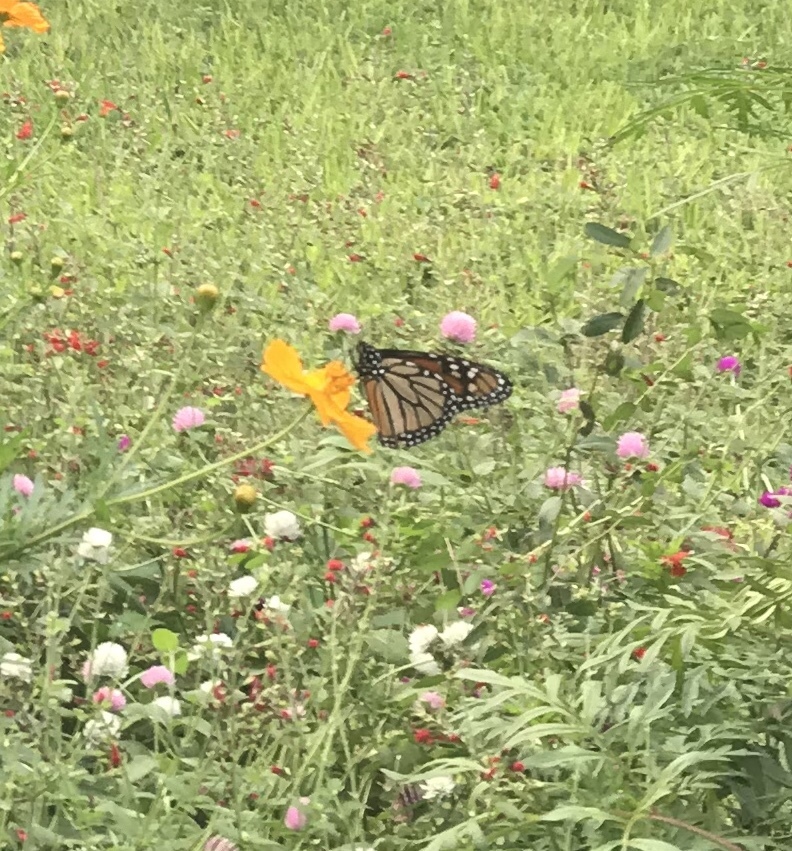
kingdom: Animalia
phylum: Arthropoda
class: Insecta
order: Lepidoptera
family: Nymphalidae
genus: Danaus
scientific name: Danaus plexippus
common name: Monarch
